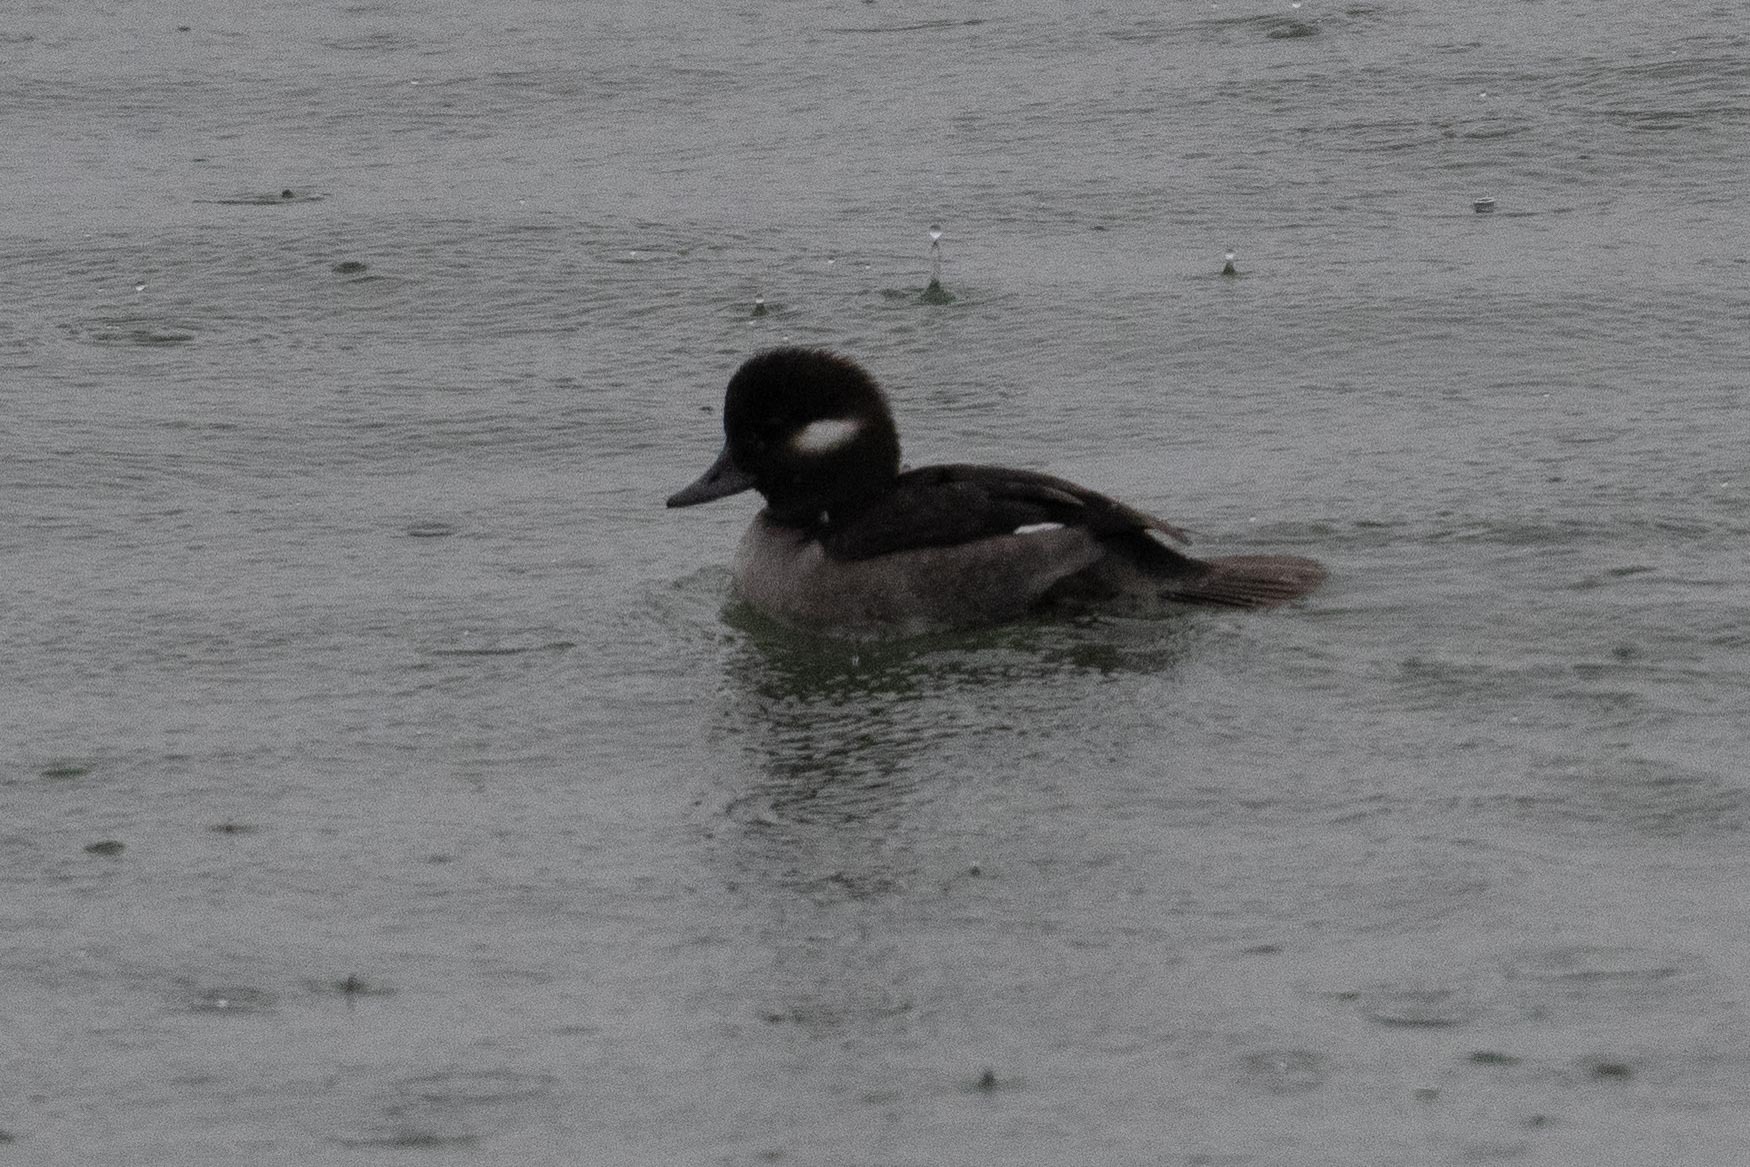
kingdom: Animalia
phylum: Chordata
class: Aves
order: Anseriformes
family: Anatidae
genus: Bucephala
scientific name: Bucephala albeola
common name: Bufflehead
